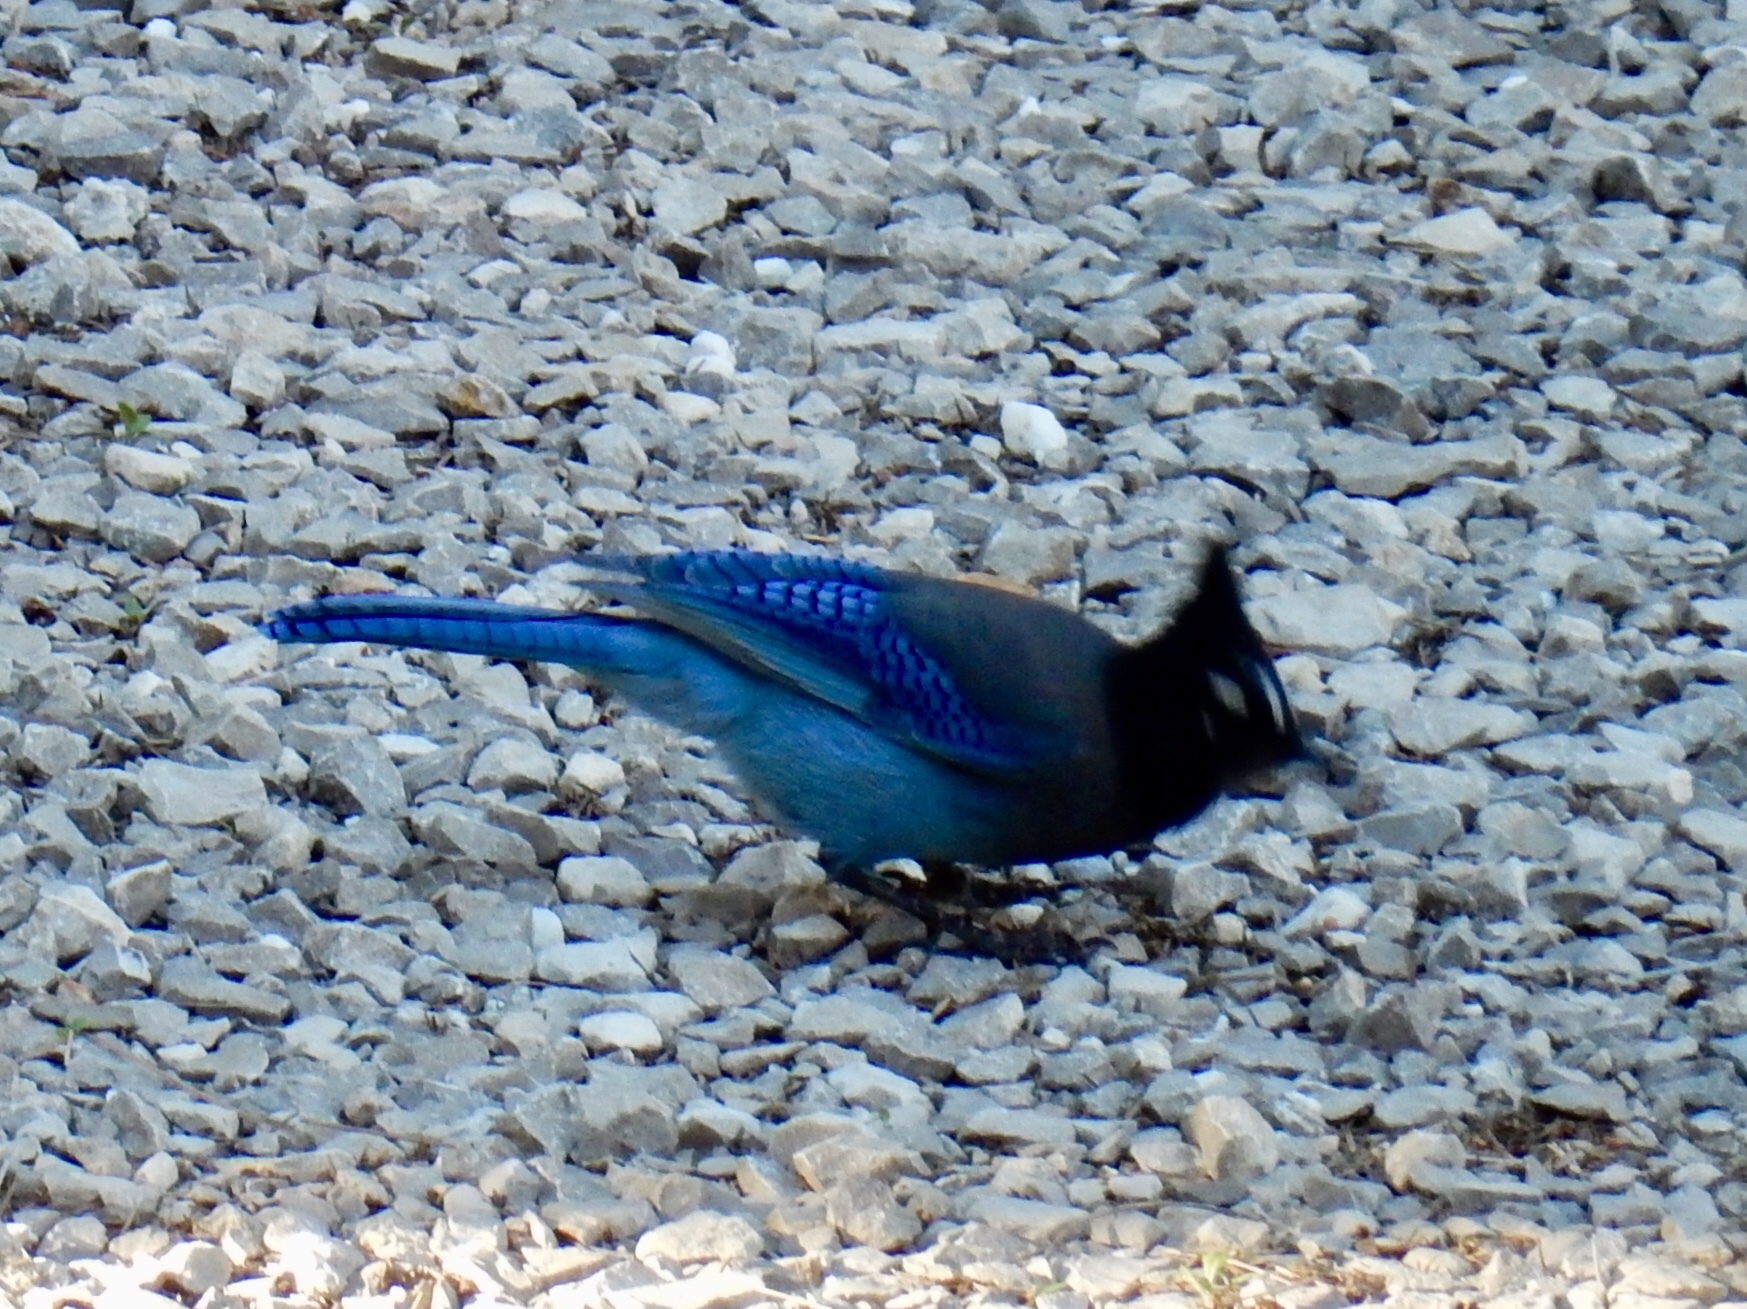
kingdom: Animalia
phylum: Chordata
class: Aves
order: Passeriformes
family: Corvidae
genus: Cyanocitta
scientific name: Cyanocitta stelleri
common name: Steller's jay
